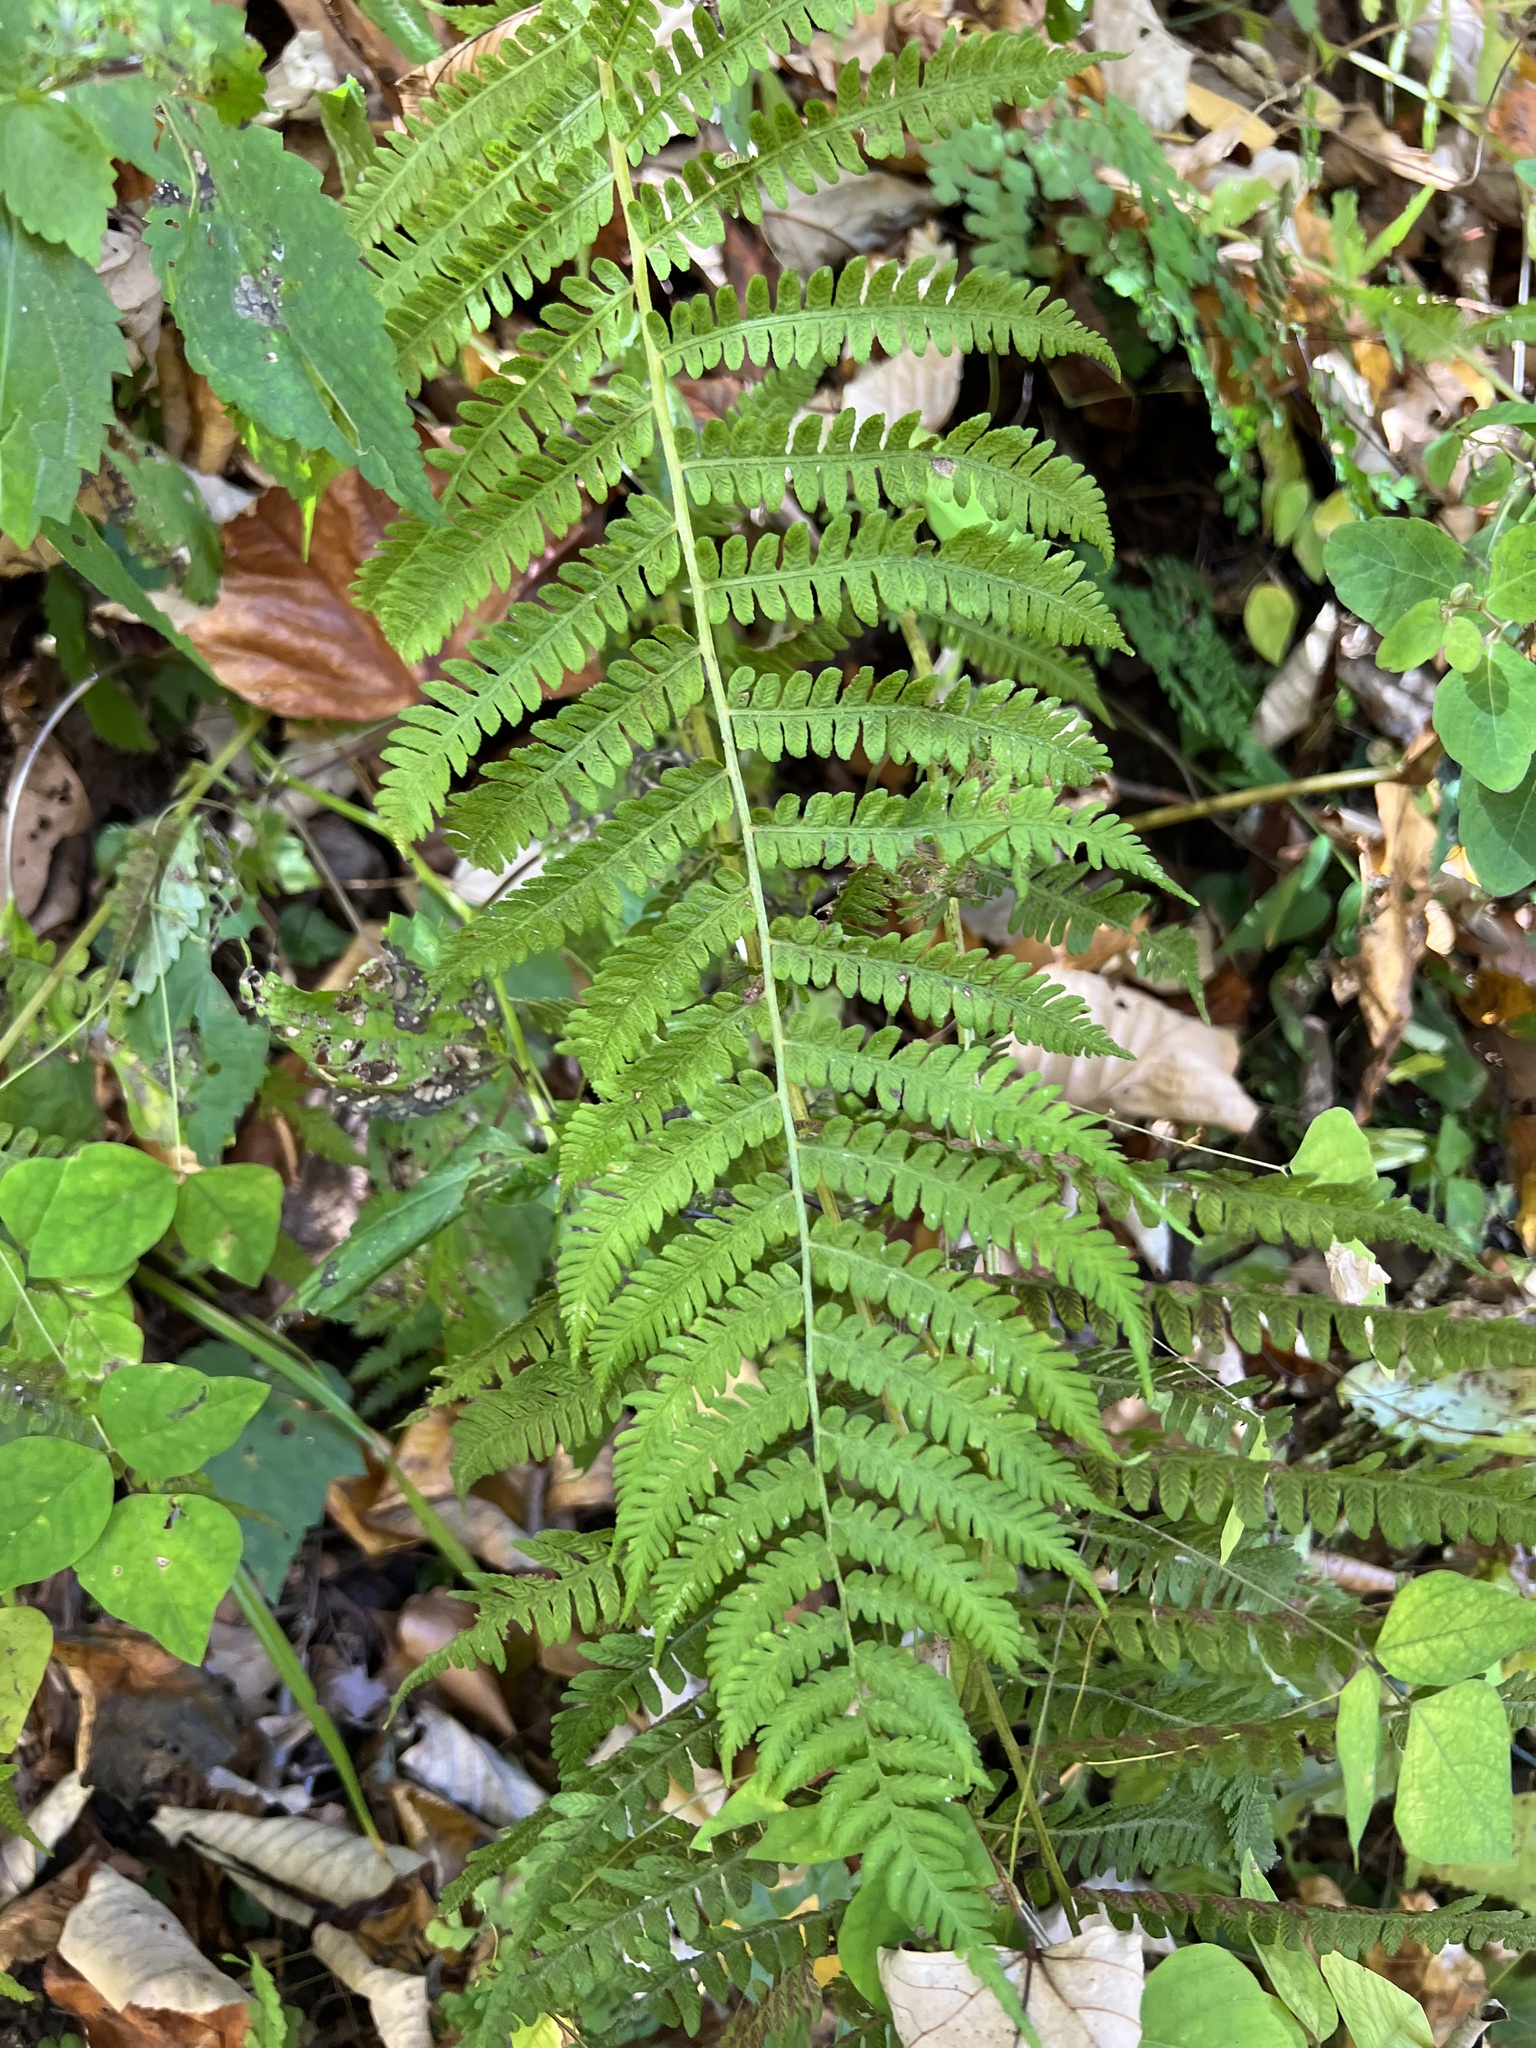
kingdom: Plantae
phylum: Tracheophyta
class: Polypodiopsida
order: Polypodiales
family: Athyriaceae
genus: Deparia
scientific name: Deparia acrostichoides
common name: Silver false spleenwort
